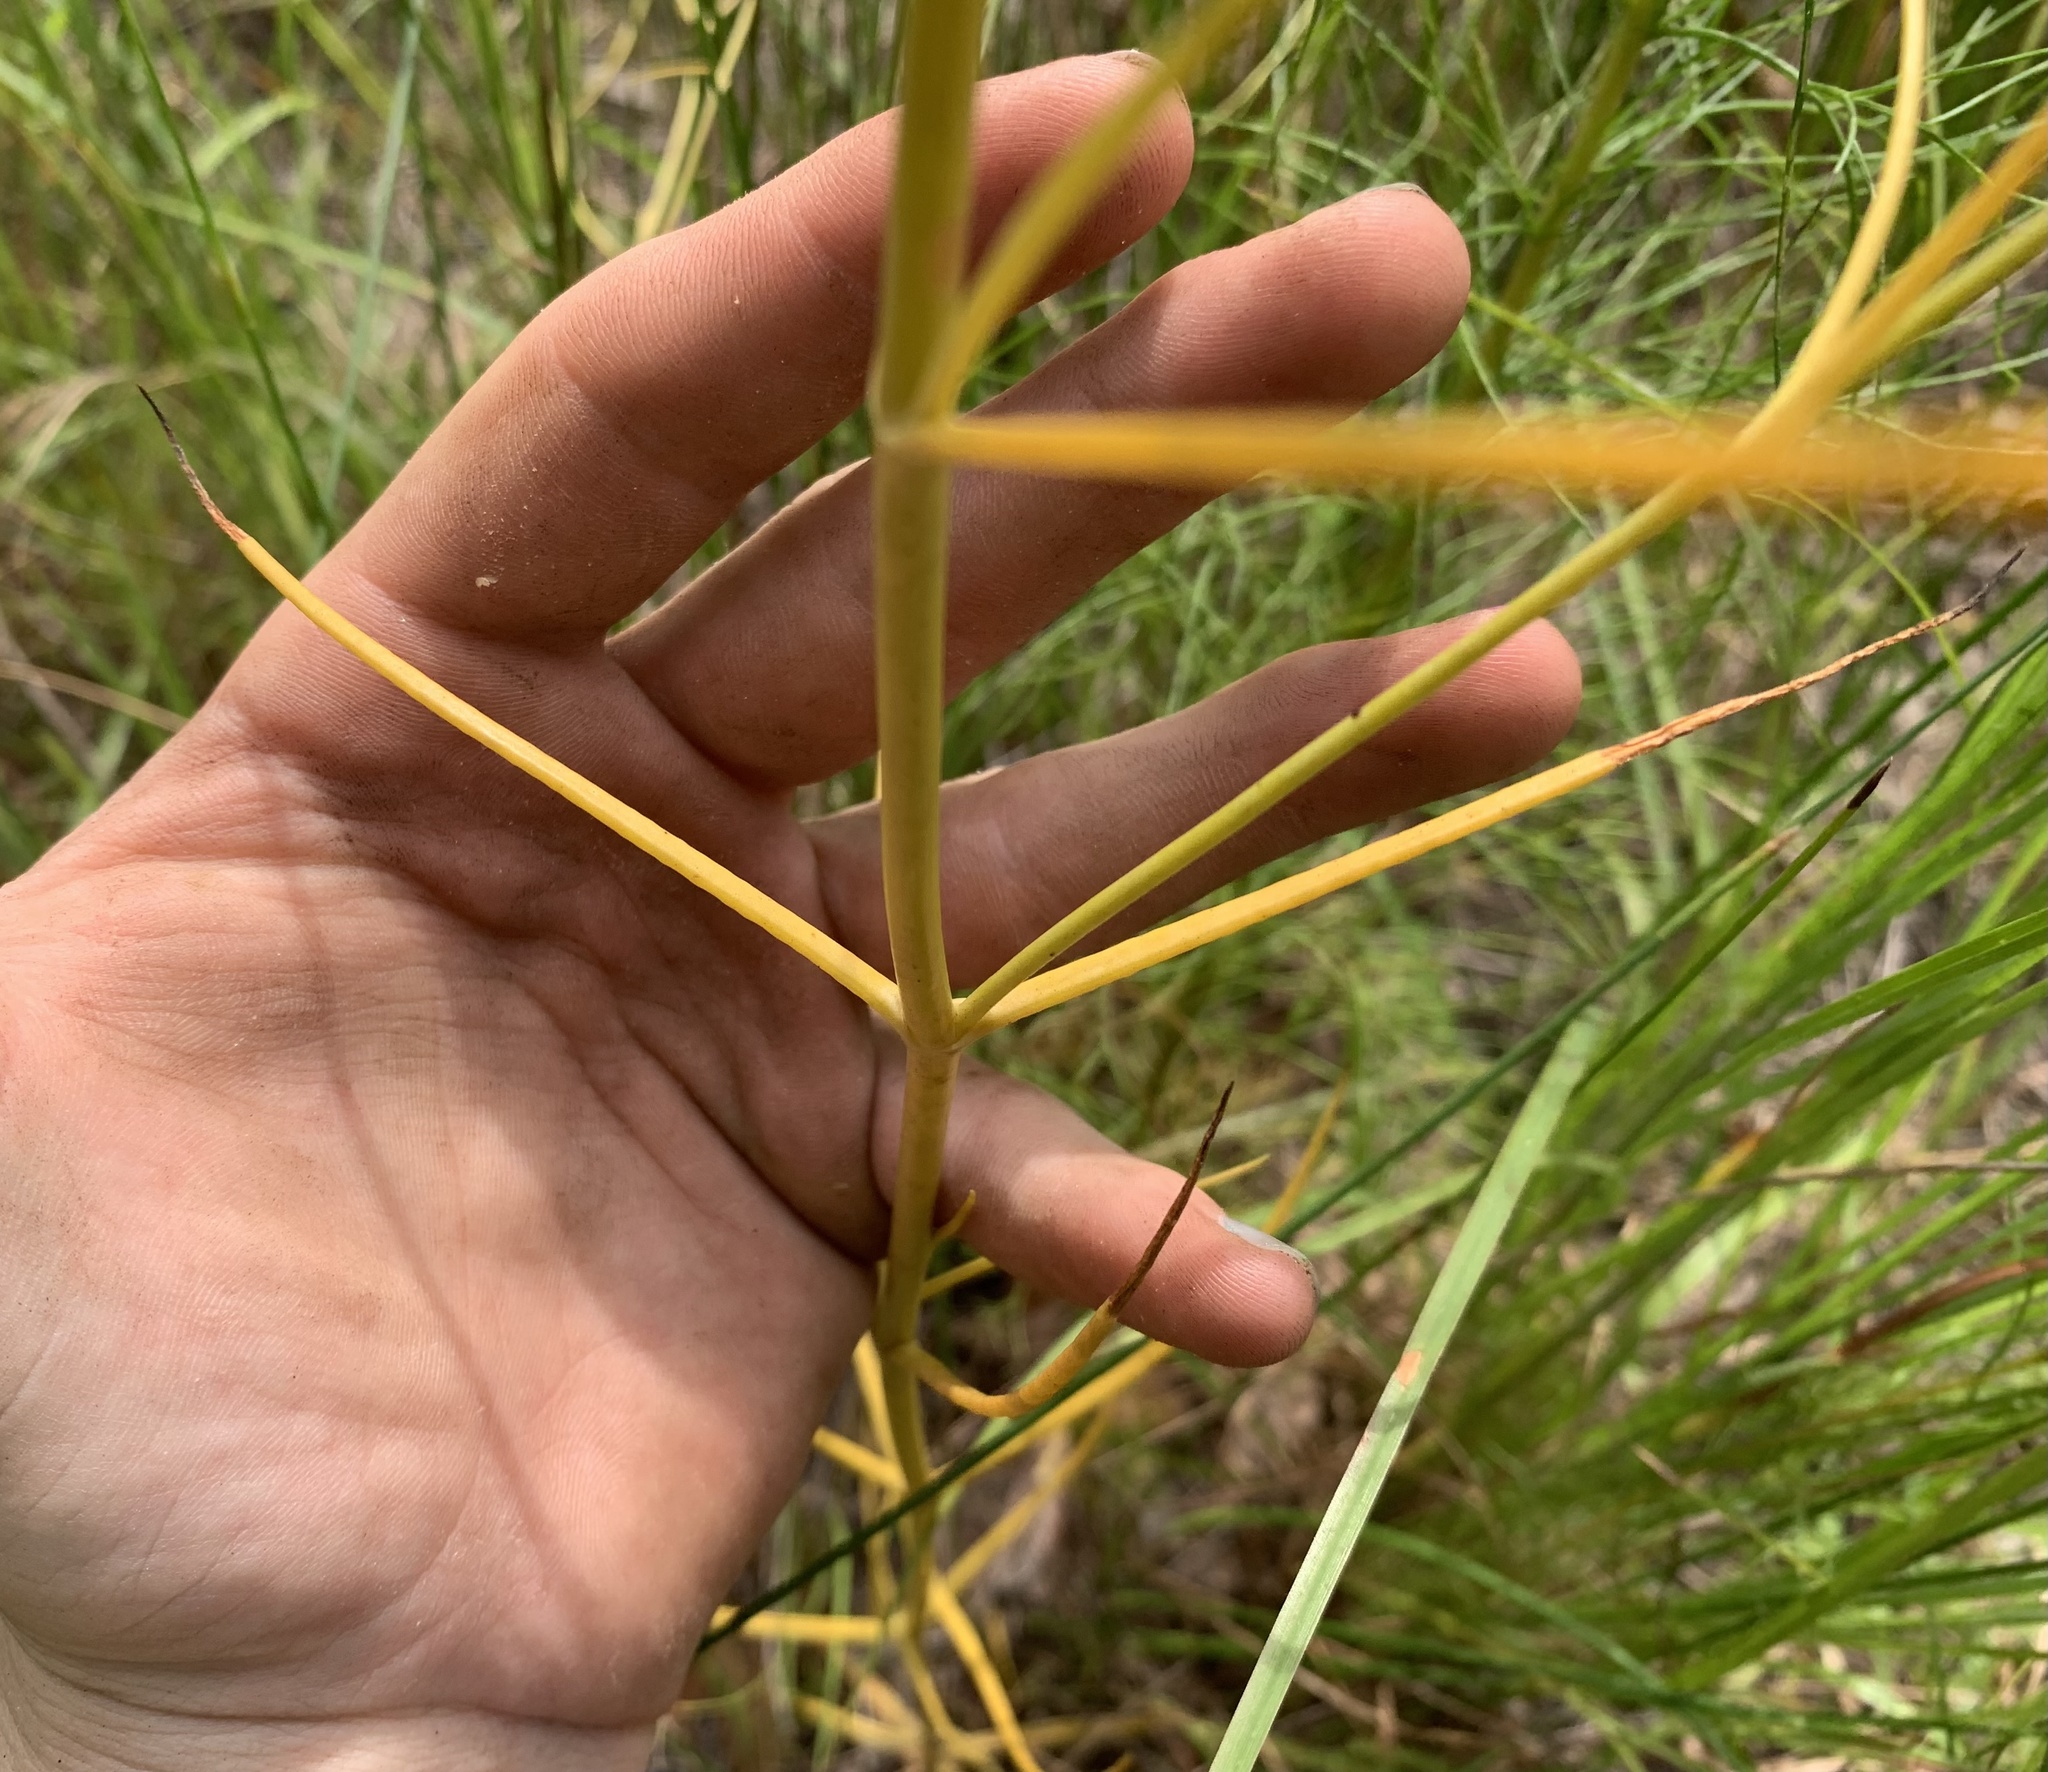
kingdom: Plantae
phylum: Tracheophyta
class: Magnoliopsida
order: Gentianales
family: Gentianaceae
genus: Sabatia
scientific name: Sabatia grandiflora
